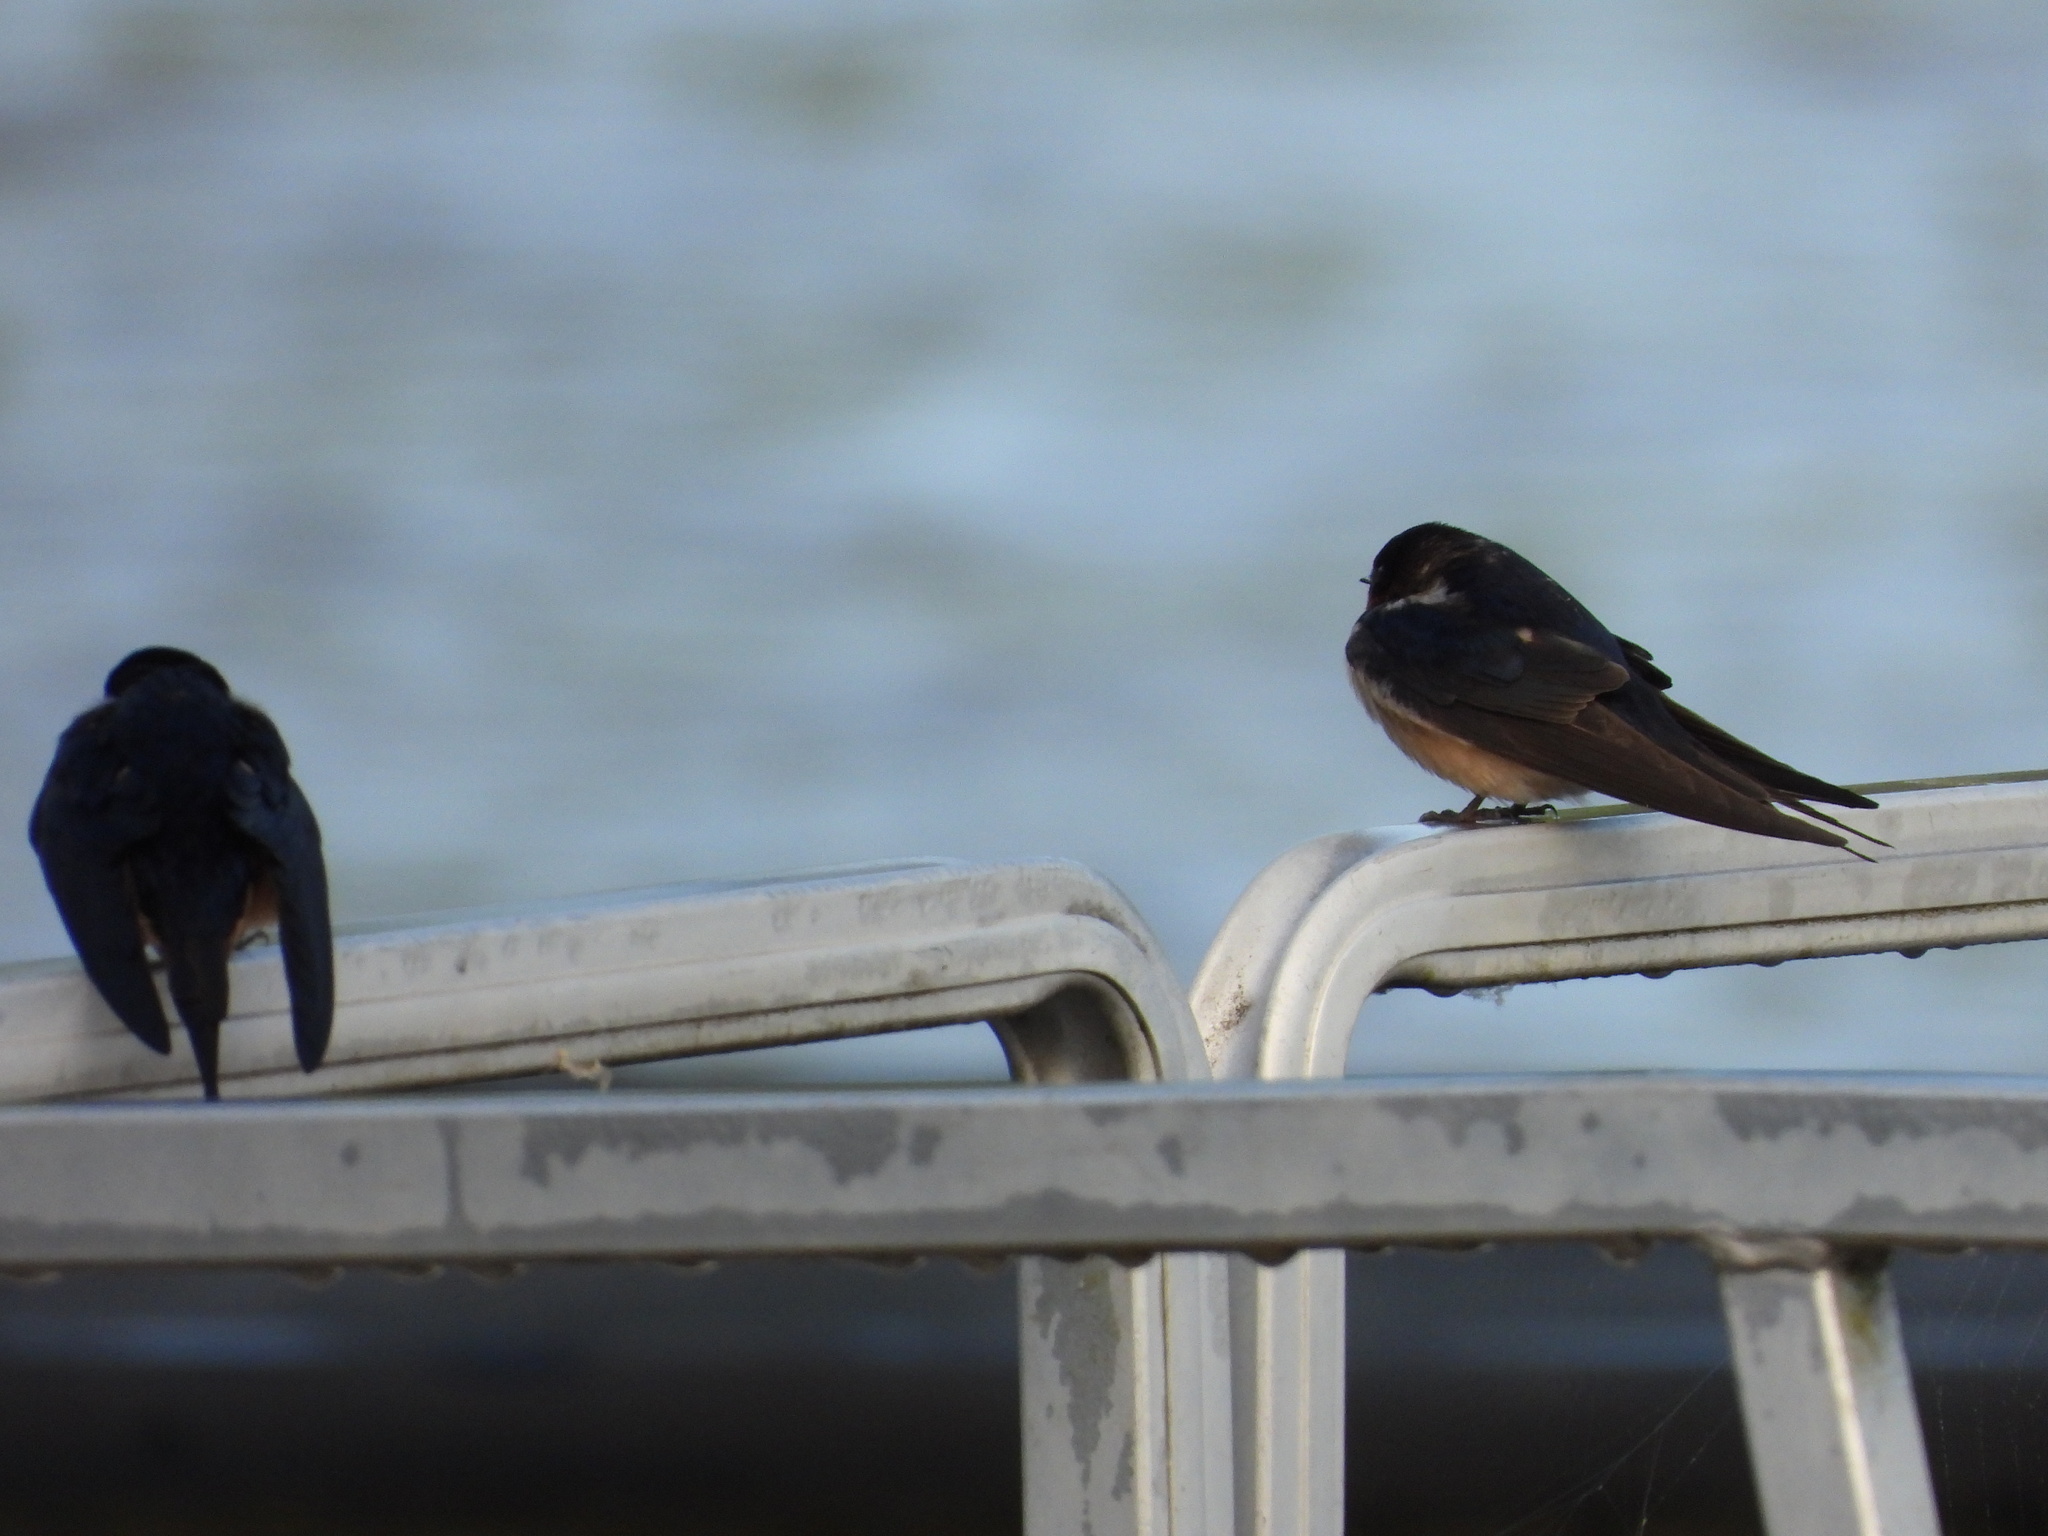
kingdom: Animalia
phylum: Chordata
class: Aves
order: Passeriformes
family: Hirundinidae
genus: Hirundo
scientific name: Hirundo rustica
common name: Barn swallow
